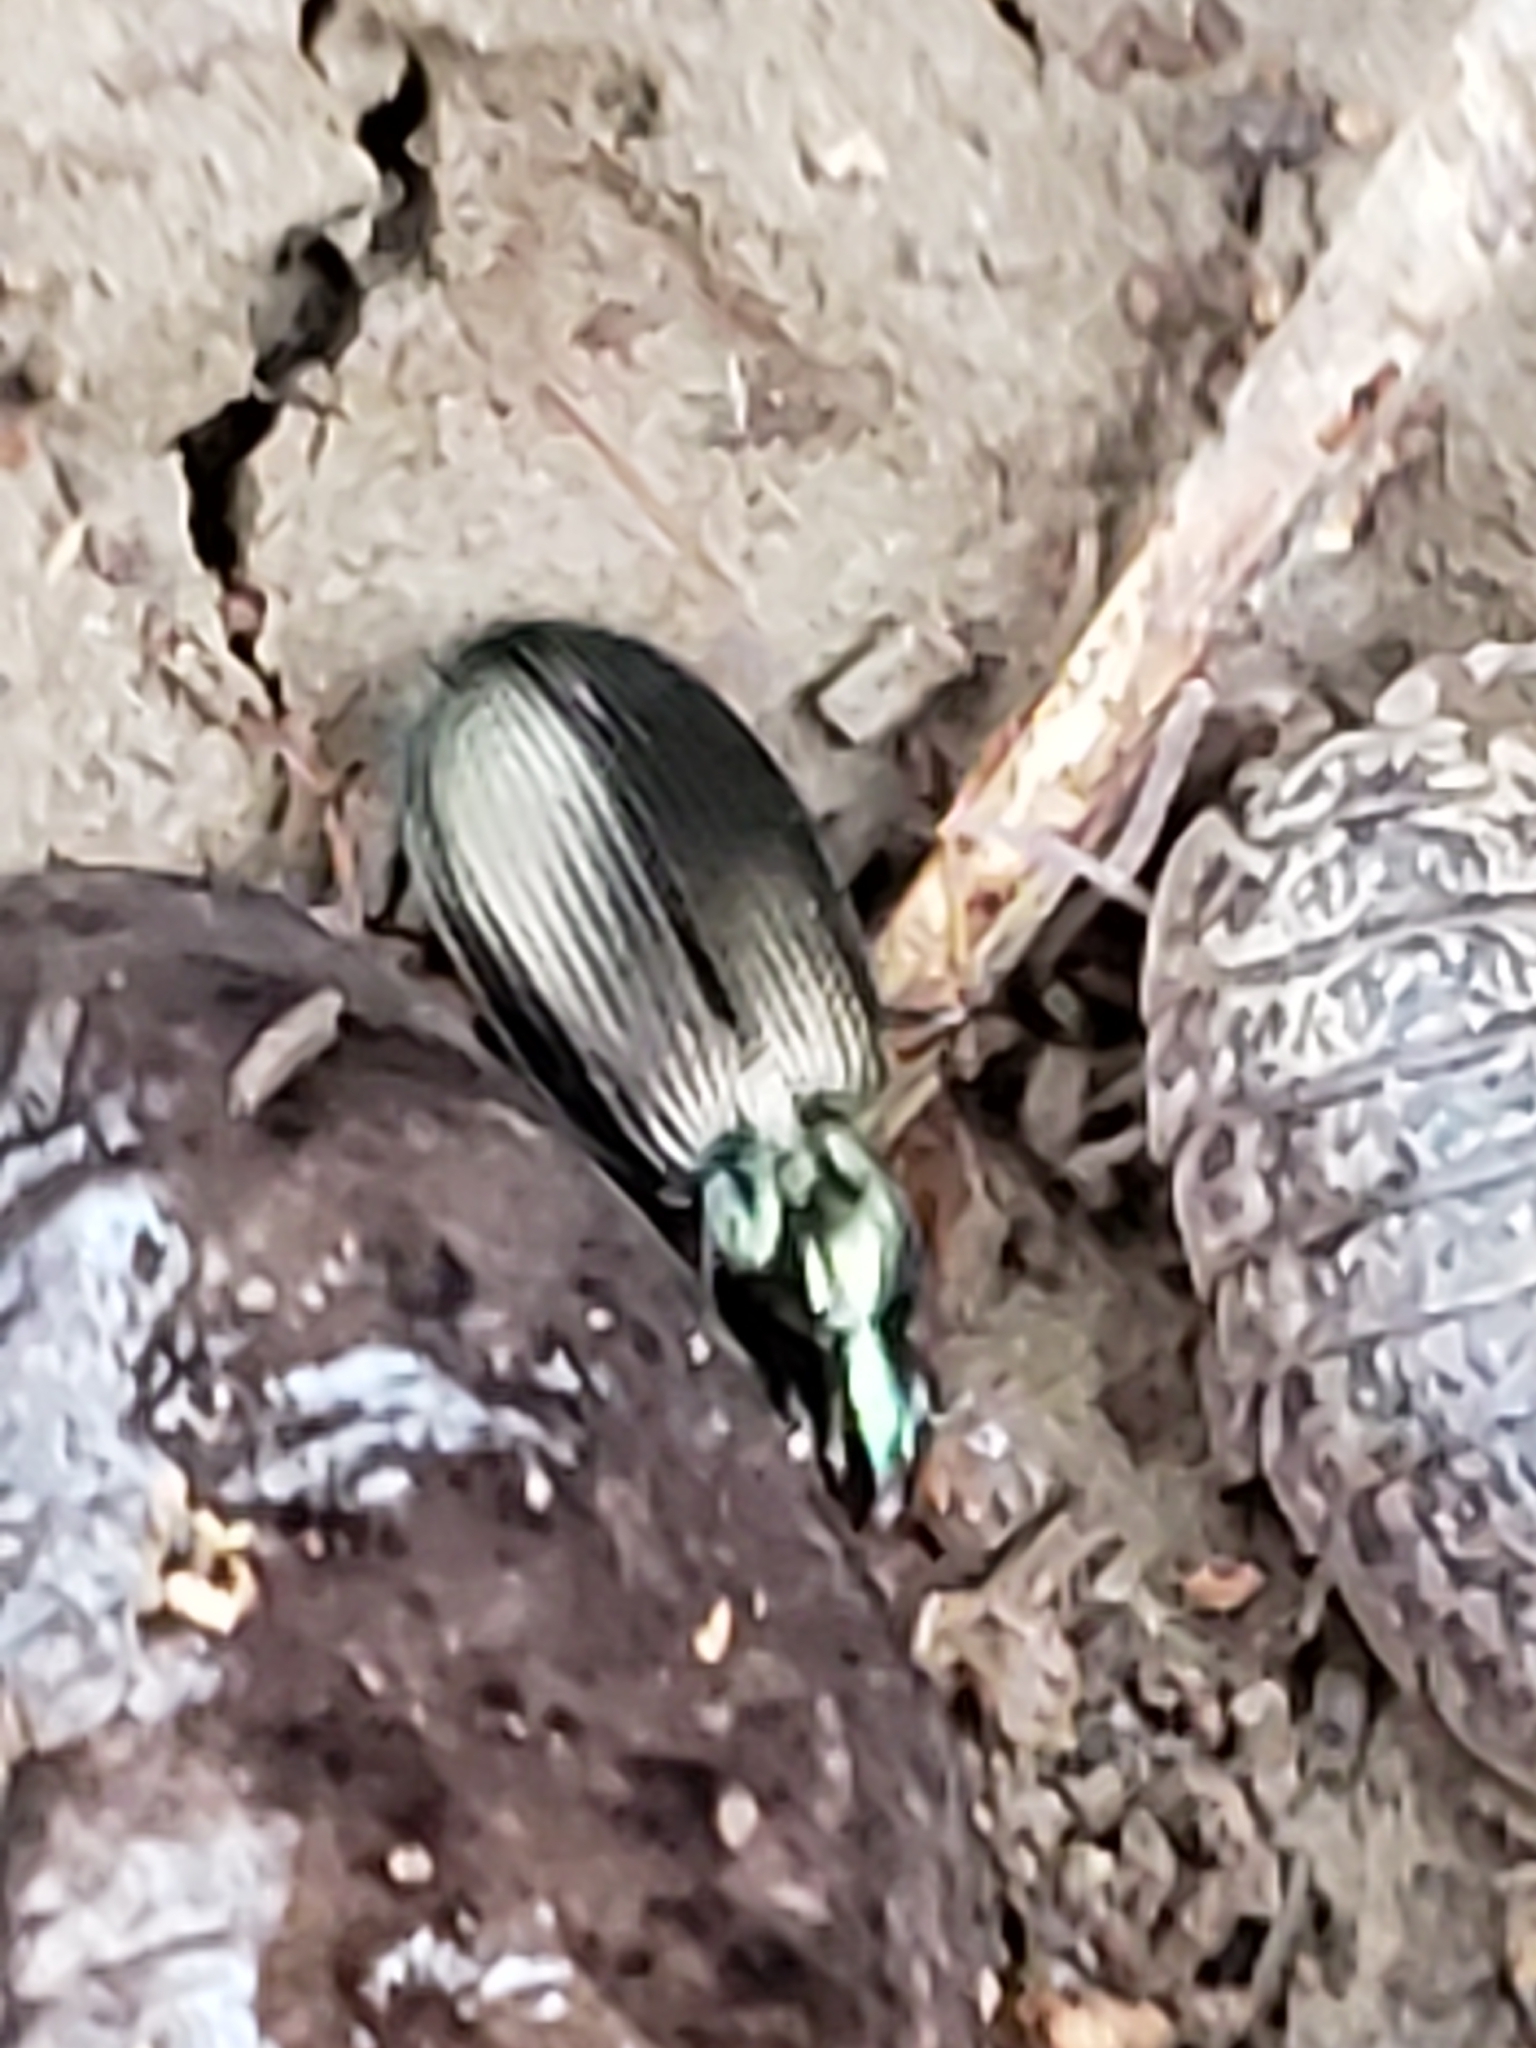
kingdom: Animalia
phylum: Arthropoda
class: Insecta
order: Coleoptera
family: Carabidae
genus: Agonum
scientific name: Agonum extensicolle
